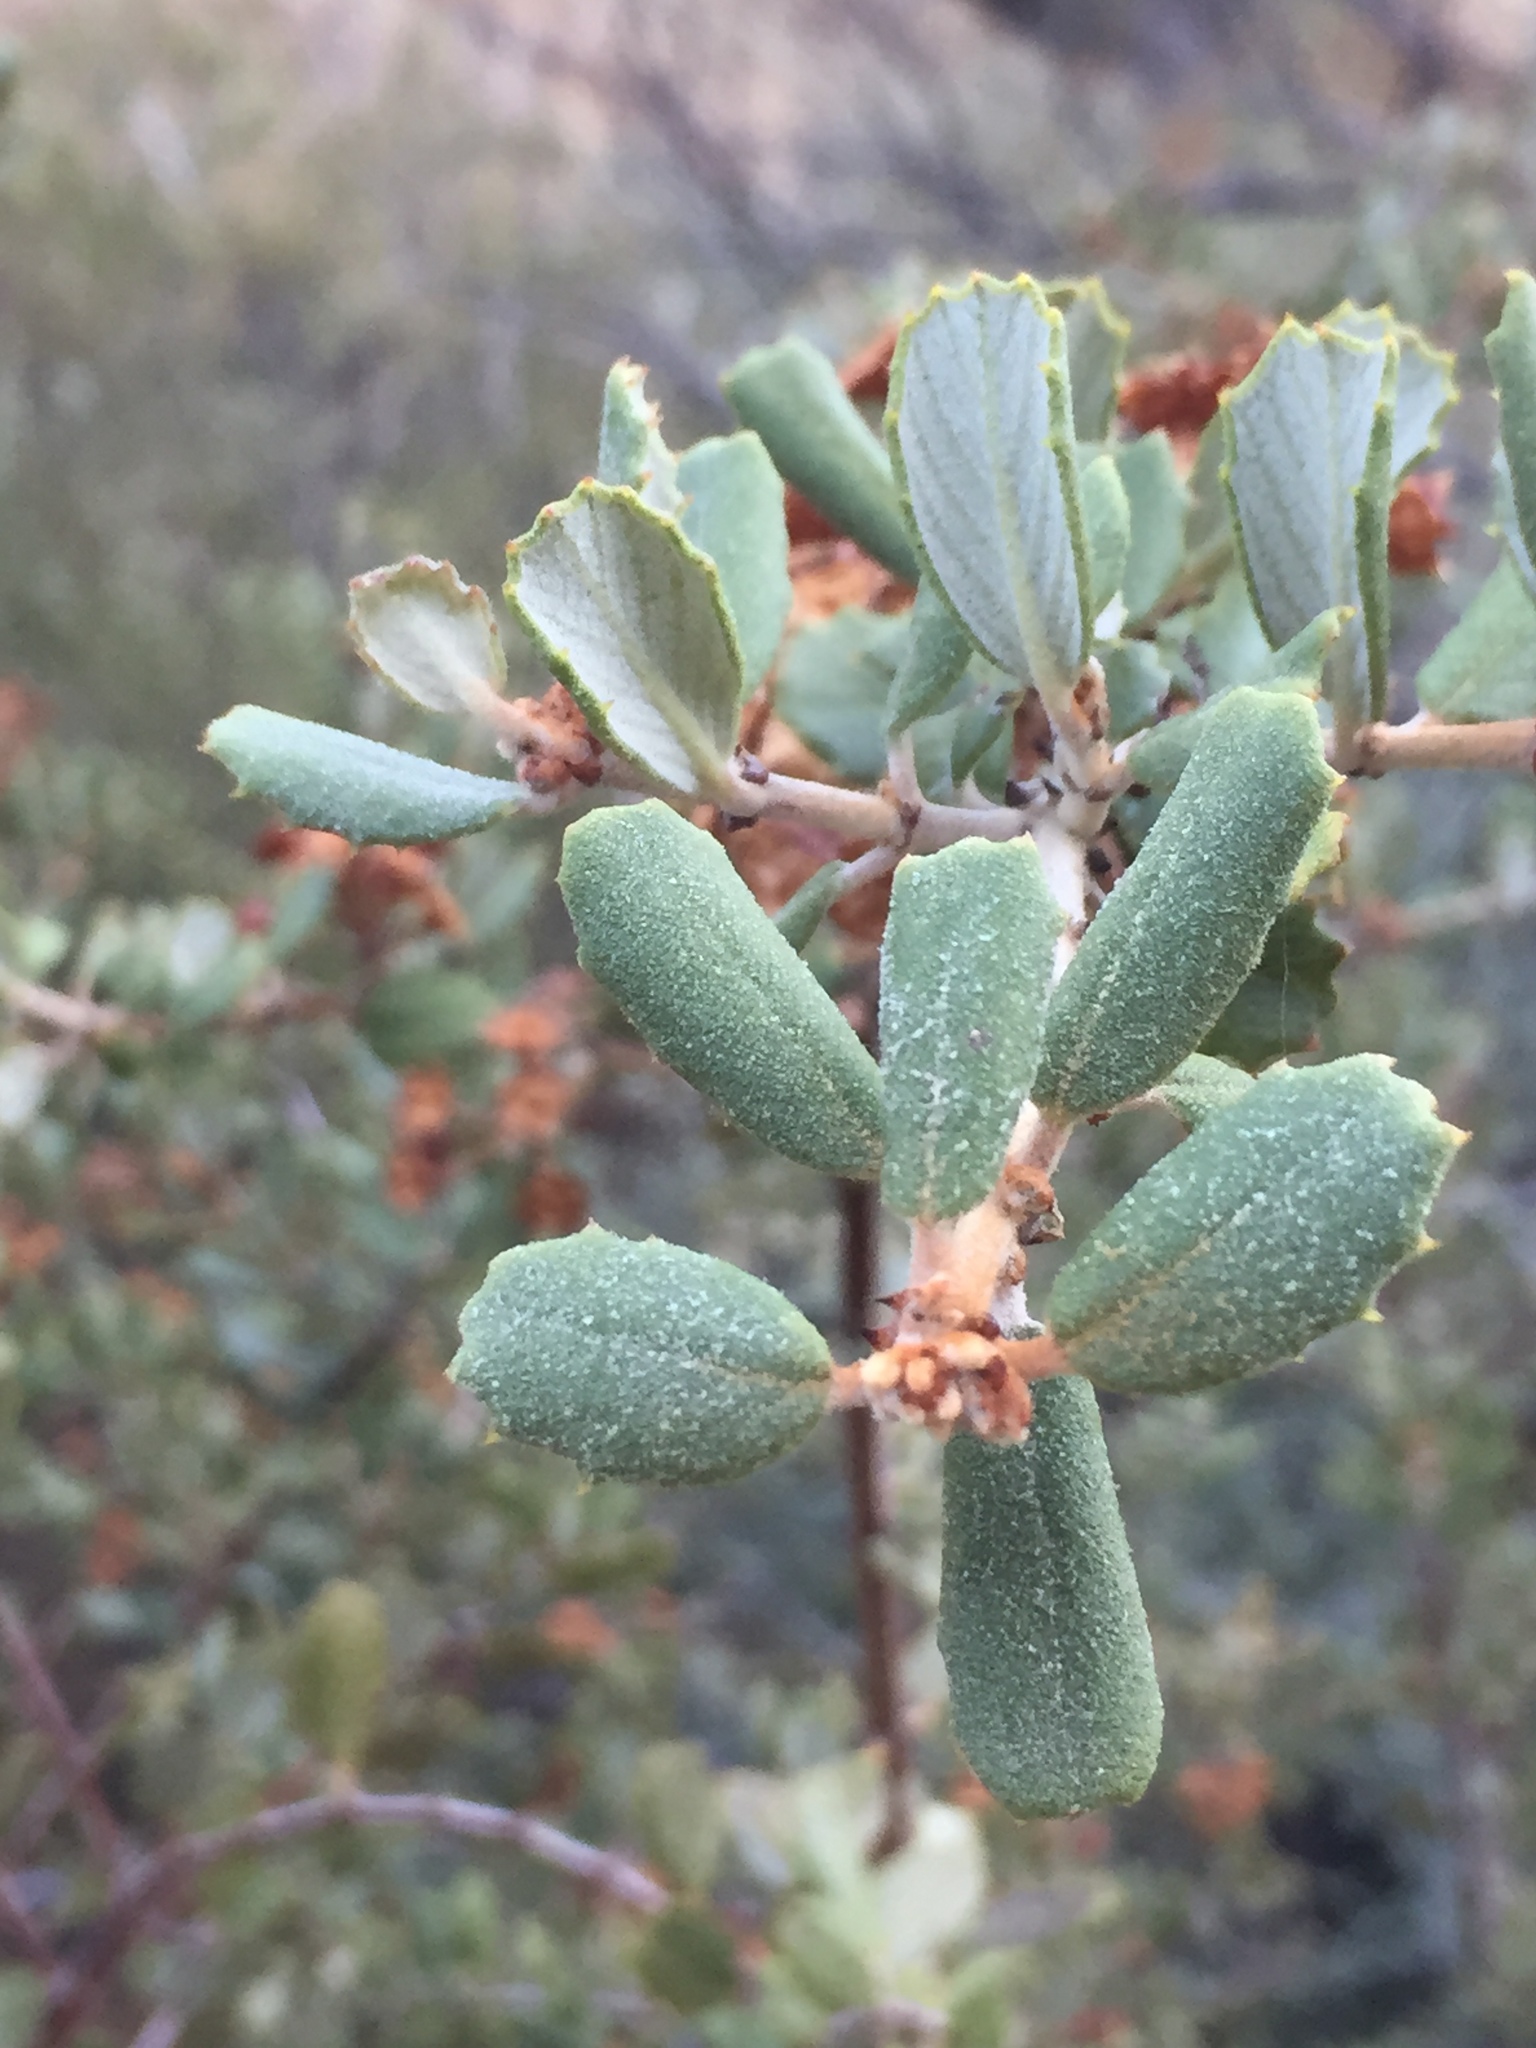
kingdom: Plantae
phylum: Tracheophyta
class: Magnoliopsida
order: Rosales
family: Rhamnaceae
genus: Ceanothus
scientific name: Ceanothus crassifolius
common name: Hoaryleaf ceanothus
